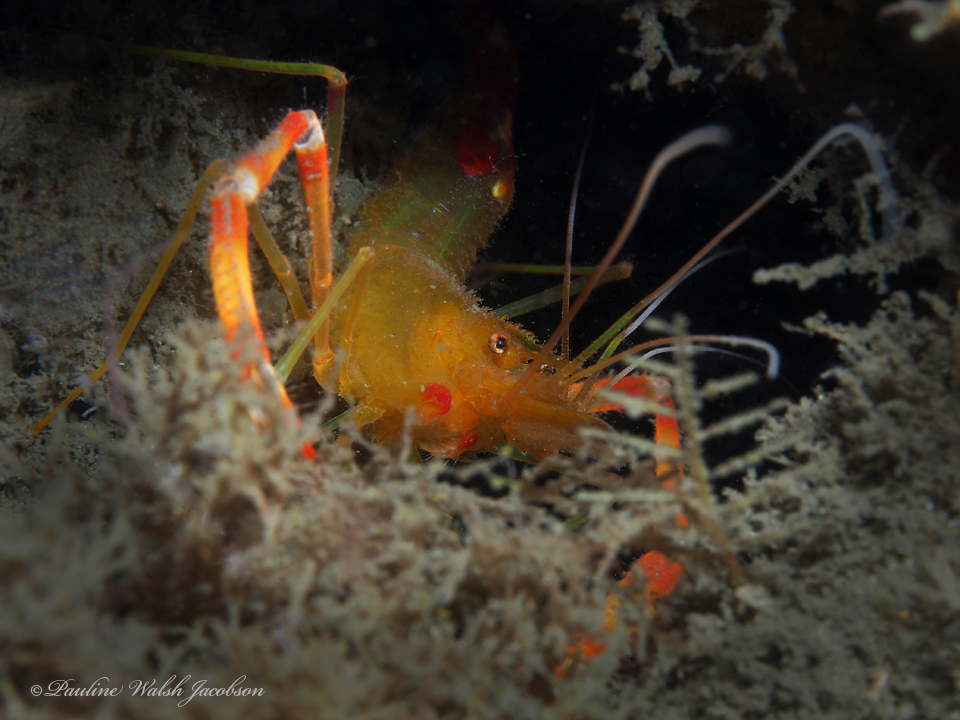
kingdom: Animalia
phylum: Arthropoda
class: Malacostraca
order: Decapoda
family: Stenopodidae
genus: Stenopus
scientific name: Stenopus scutellatus
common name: Golden coral shrimp
